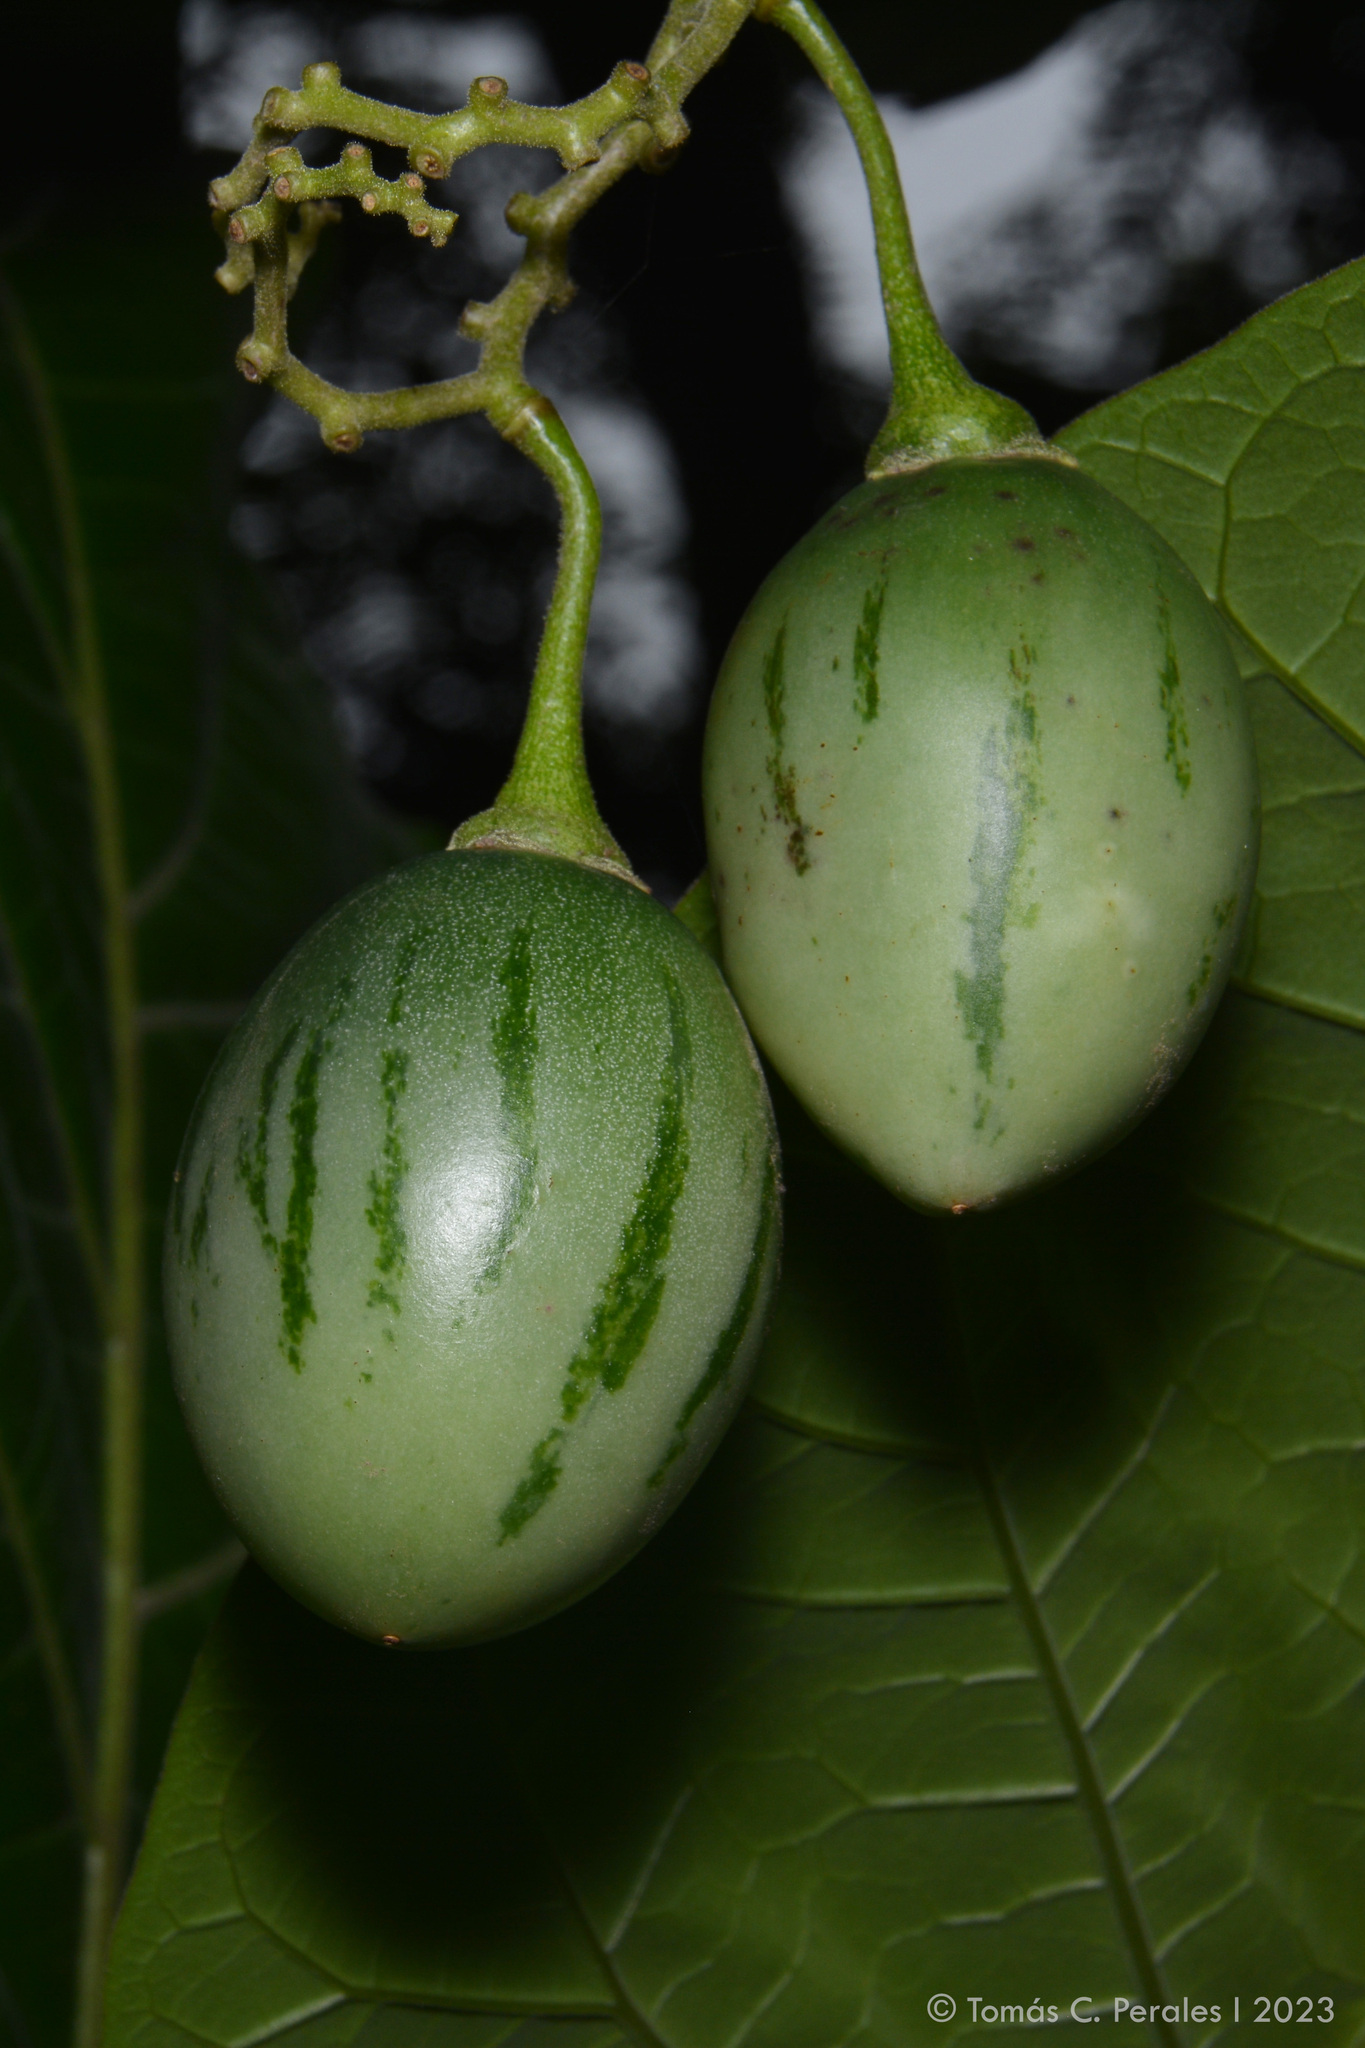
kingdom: Plantae
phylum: Tracheophyta
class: Magnoliopsida
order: Solanales
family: Solanaceae
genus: Solanum
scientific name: Solanum betaceum
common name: Tamarillo
